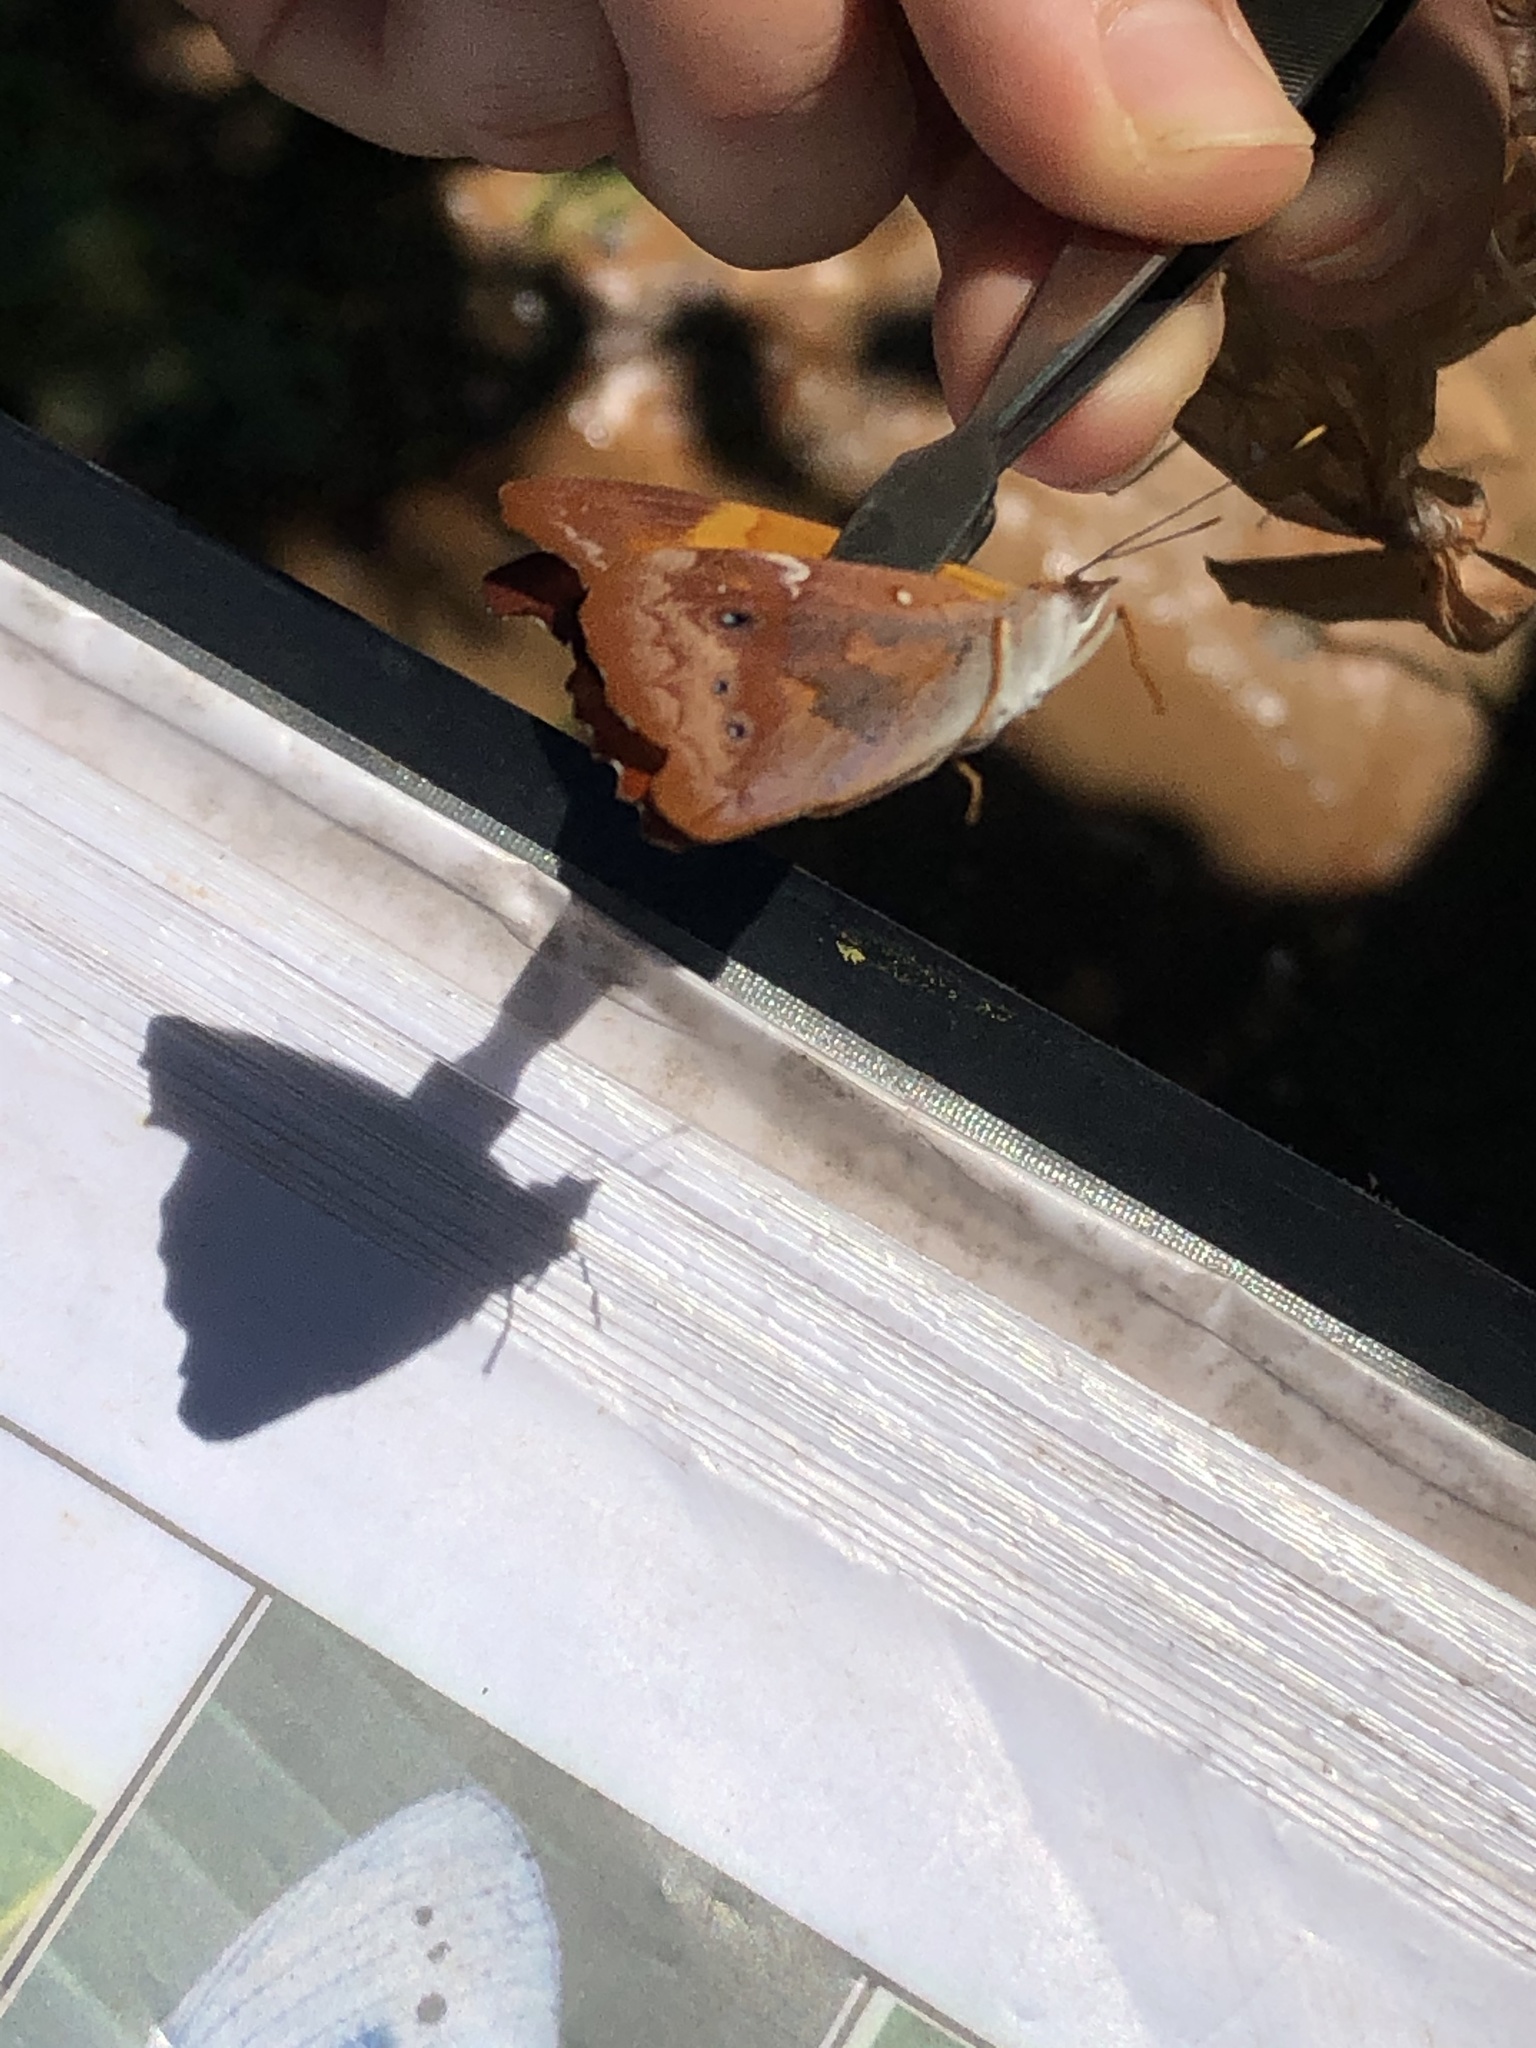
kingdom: Animalia
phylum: Arthropoda
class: Insecta
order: Lepidoptera
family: Nymphalidae
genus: Temenis
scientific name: Temenis laothoe
